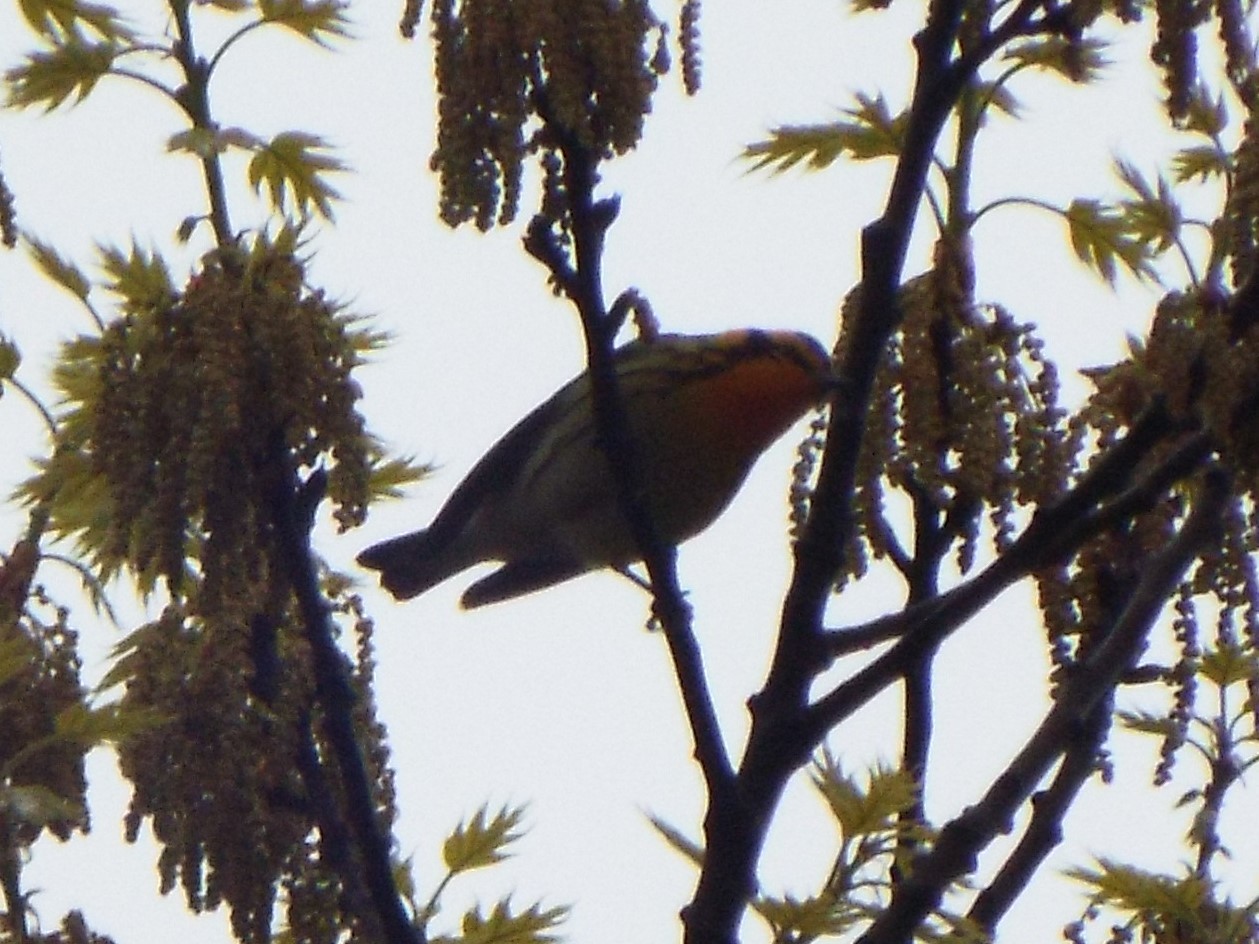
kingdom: Animalia
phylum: Chordata
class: Aves
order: Passeriformes
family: Parulidae
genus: Setophaga
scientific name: Setophaga fusca
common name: Blackburnian warbler
